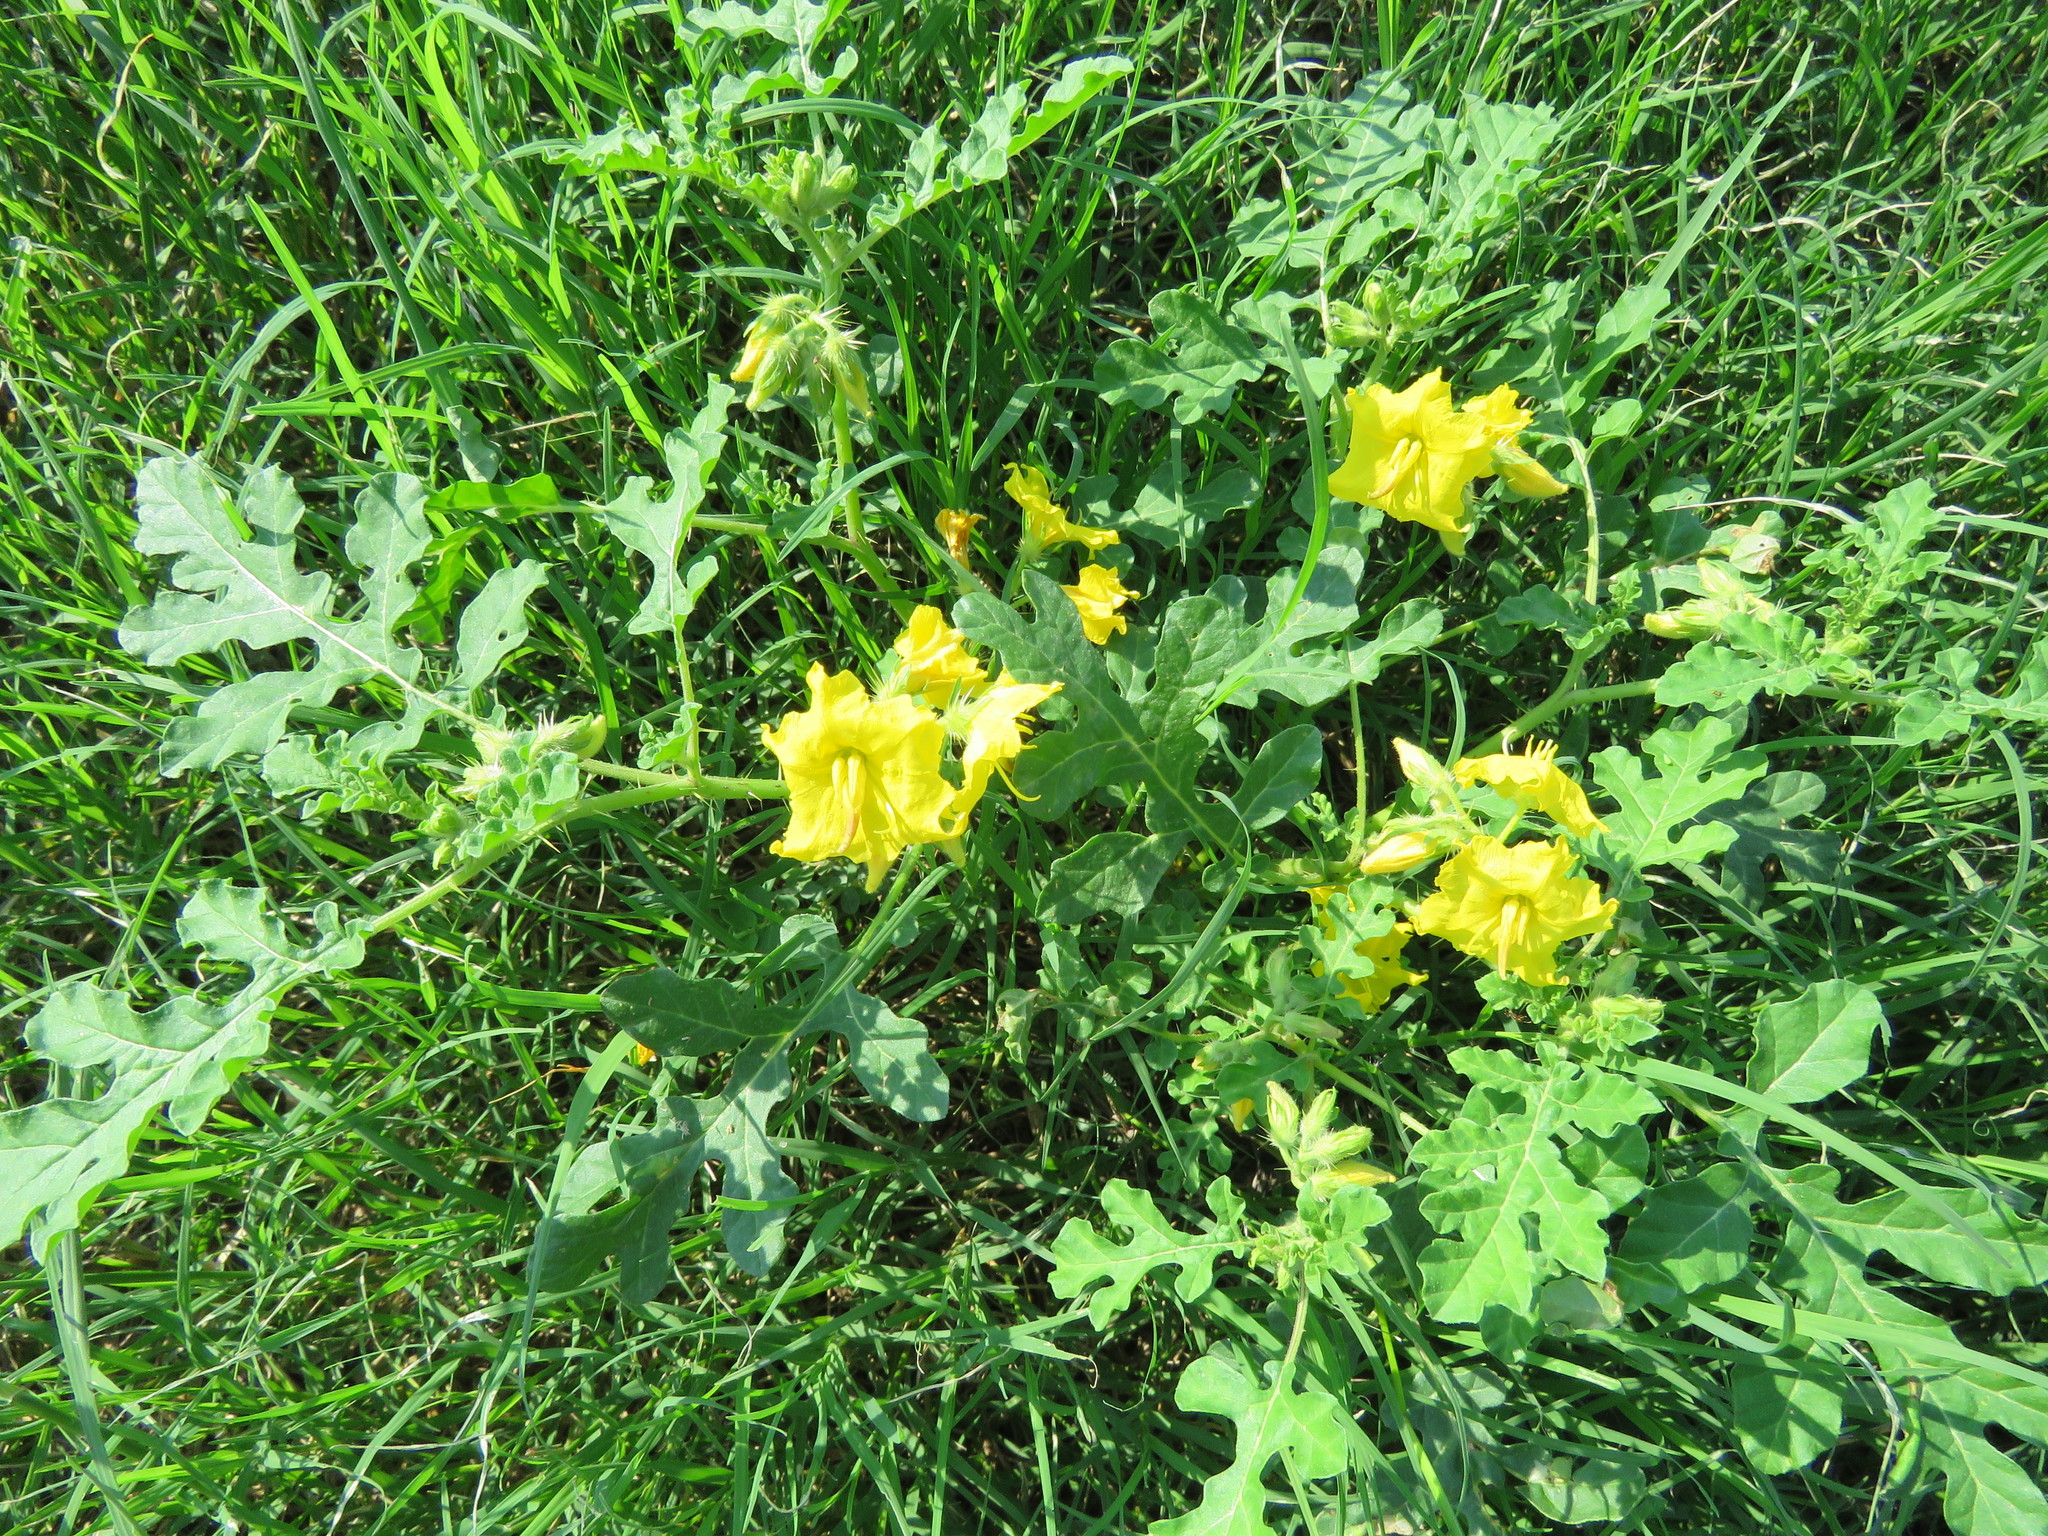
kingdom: Plantae
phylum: Tracheophyta
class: Magnoliopsida
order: Solanales
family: Solanaceae
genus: Solanum
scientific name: Solanum angustifolium
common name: Buffalobur nightshade
